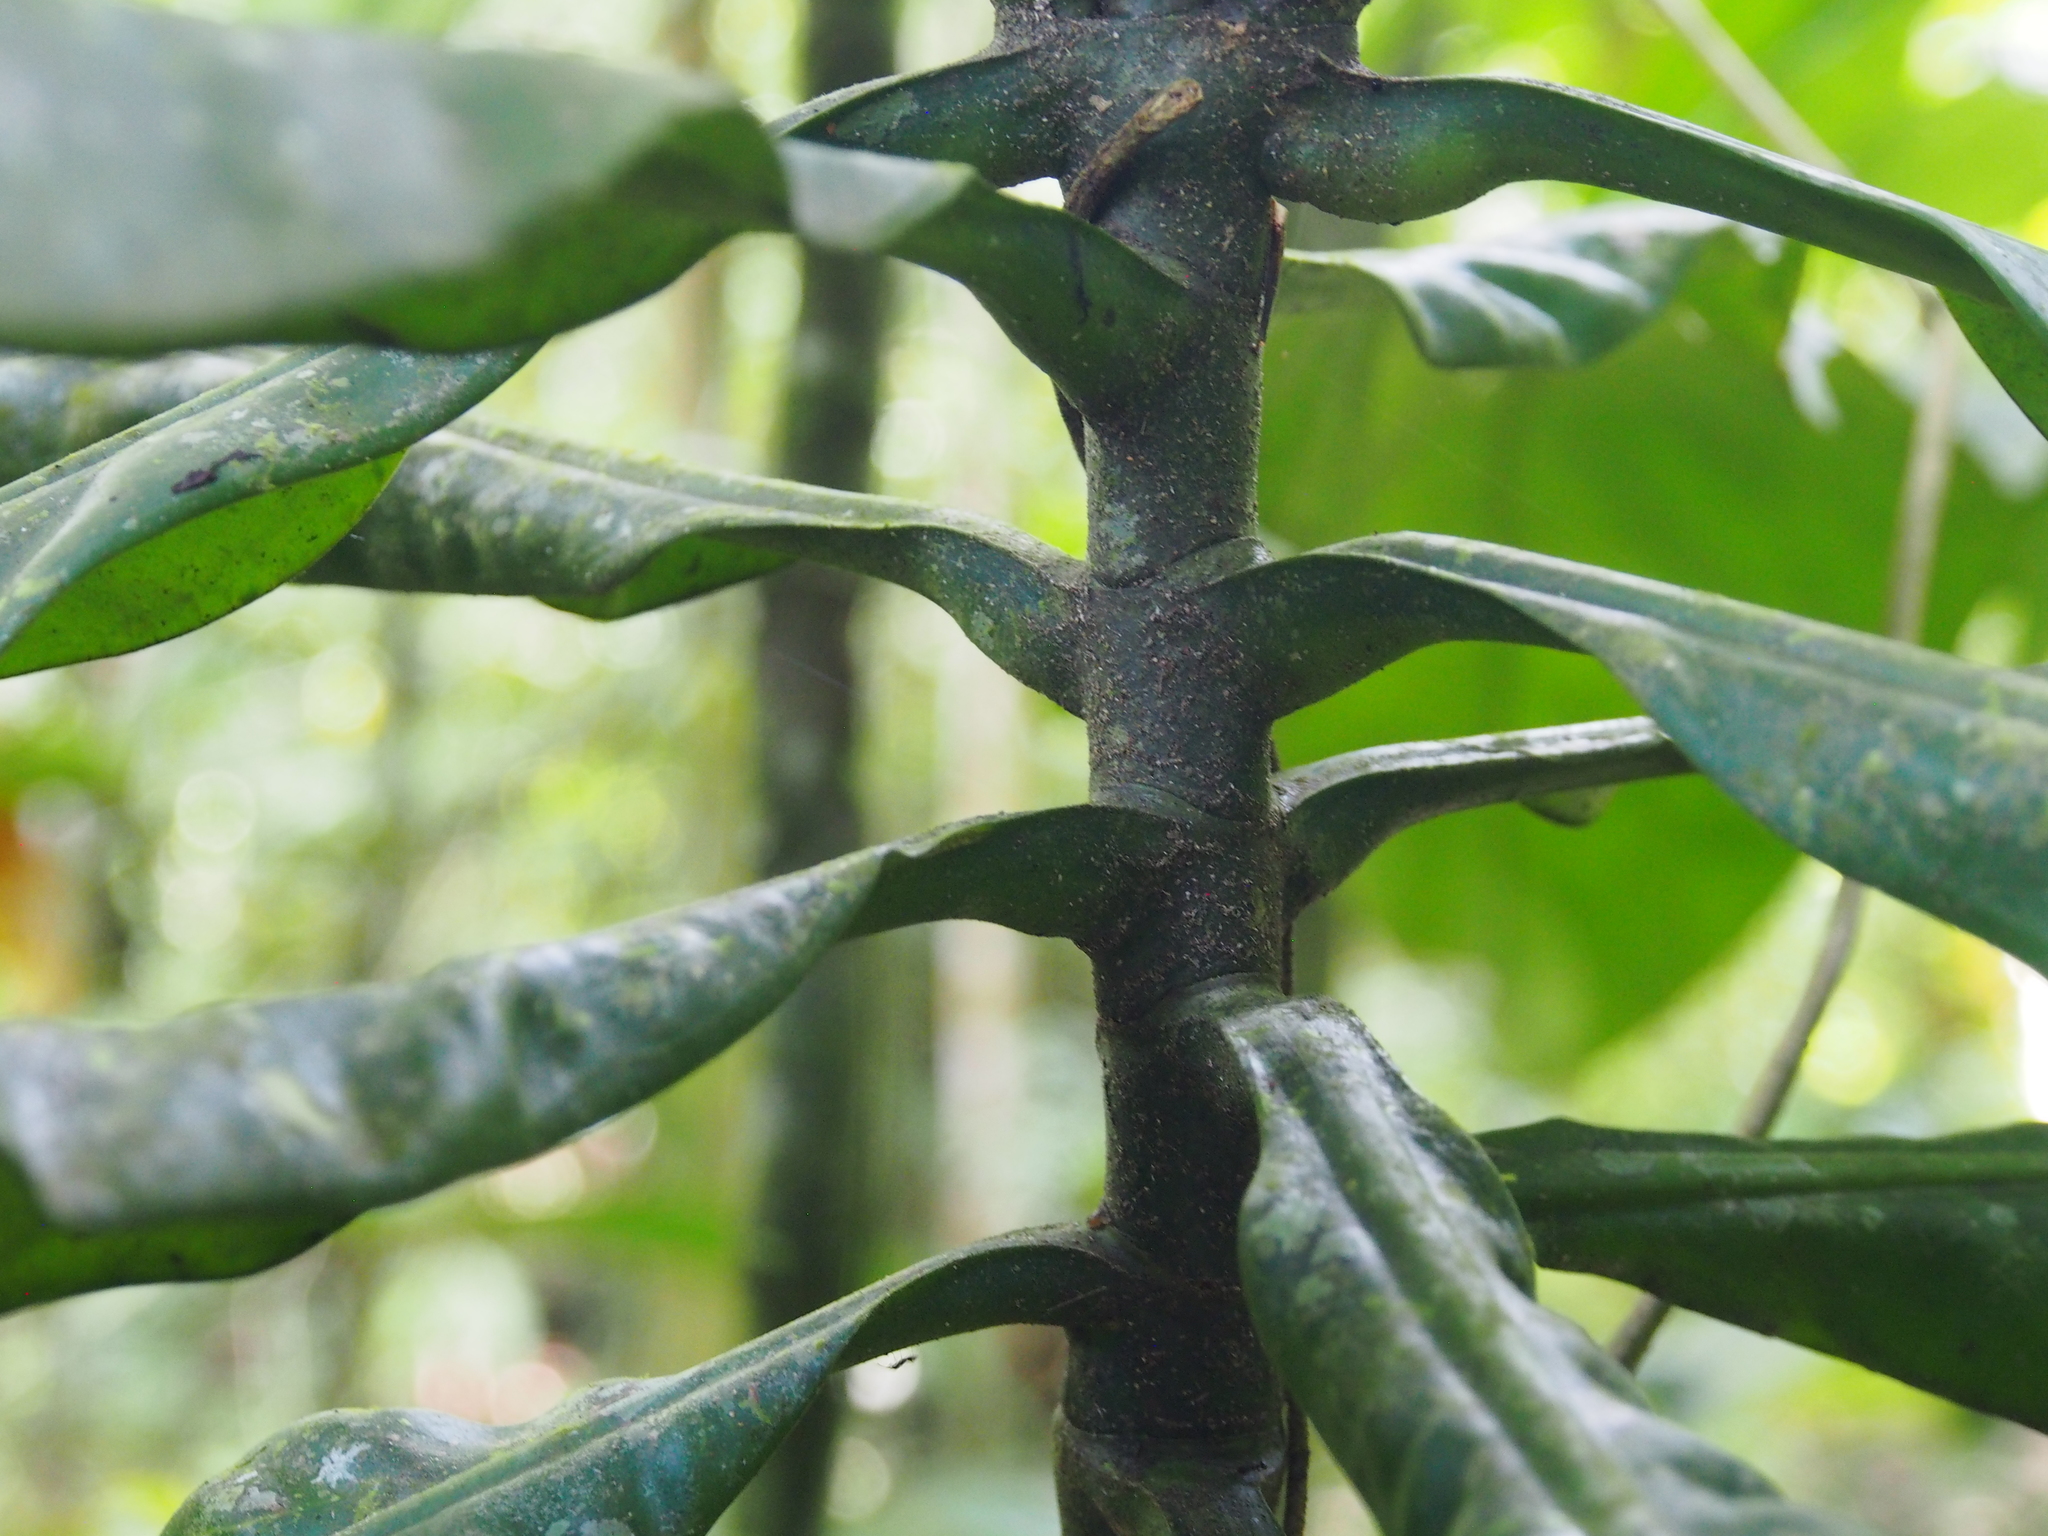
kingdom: Plantae
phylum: Tracheophyta
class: Magnoliopsida
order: Gentianales
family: Gentianaceae
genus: Potalia
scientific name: Potalia turbinata
